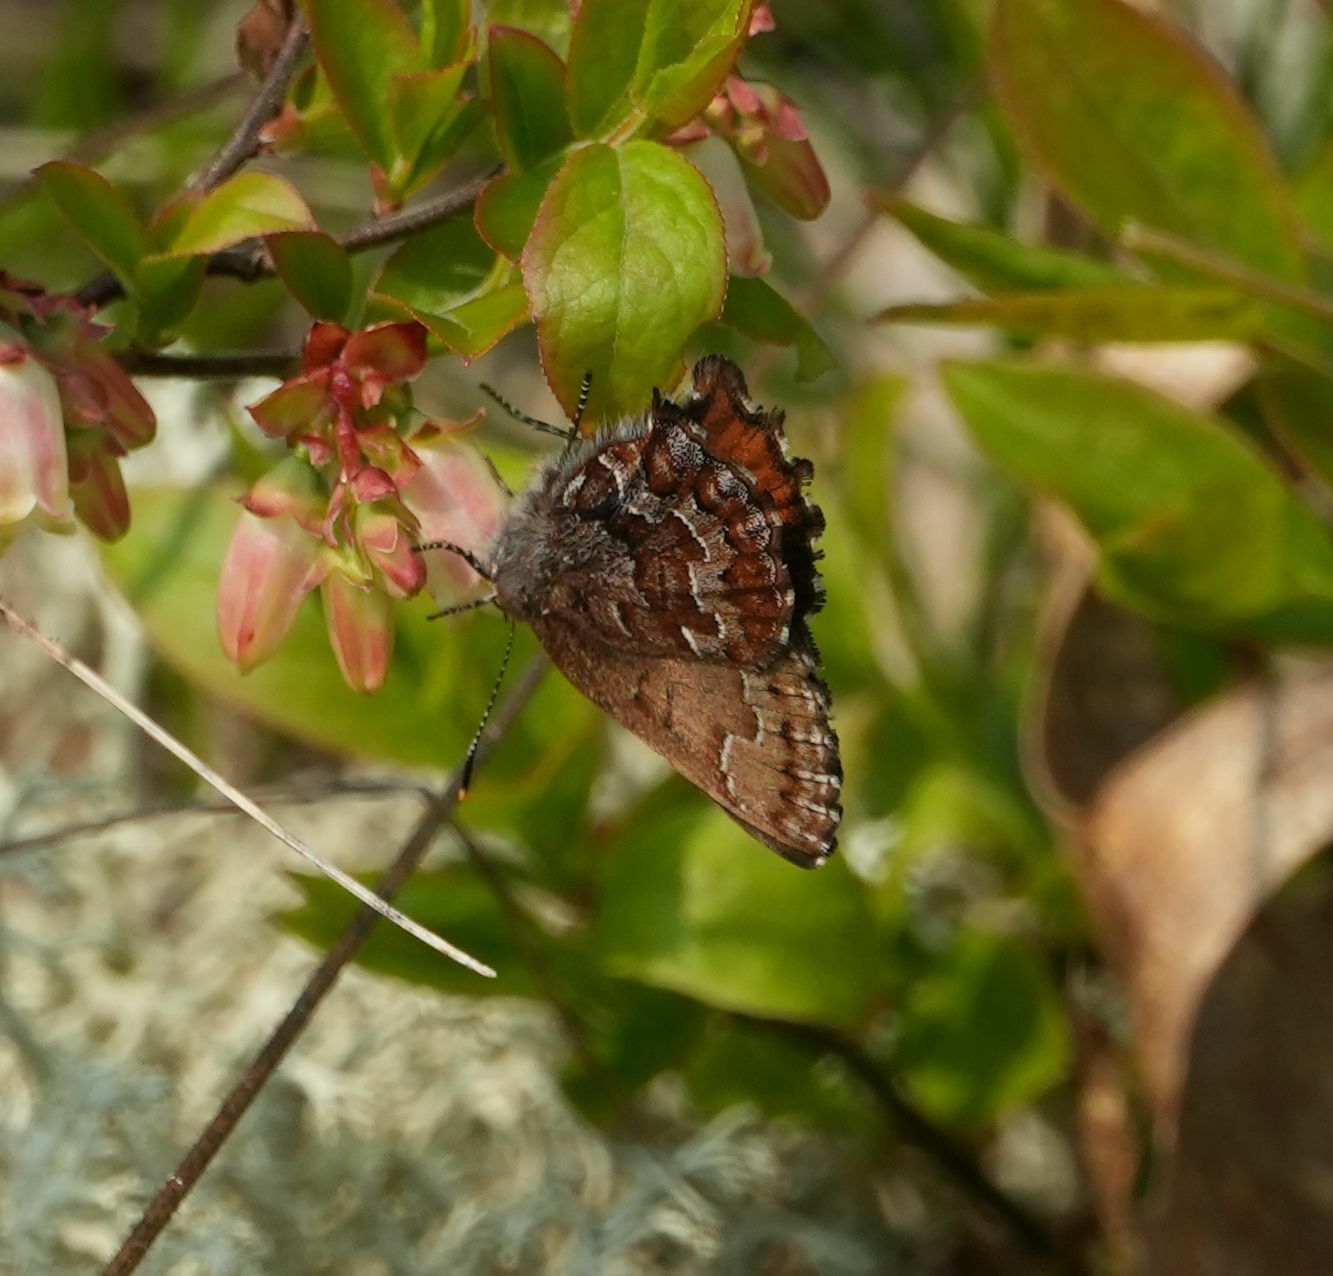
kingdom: Animalia
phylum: Arthropoda
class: Insecta
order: Lepidoptera
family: Lycaenidae
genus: Incisalia
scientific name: Incisalia niphon
